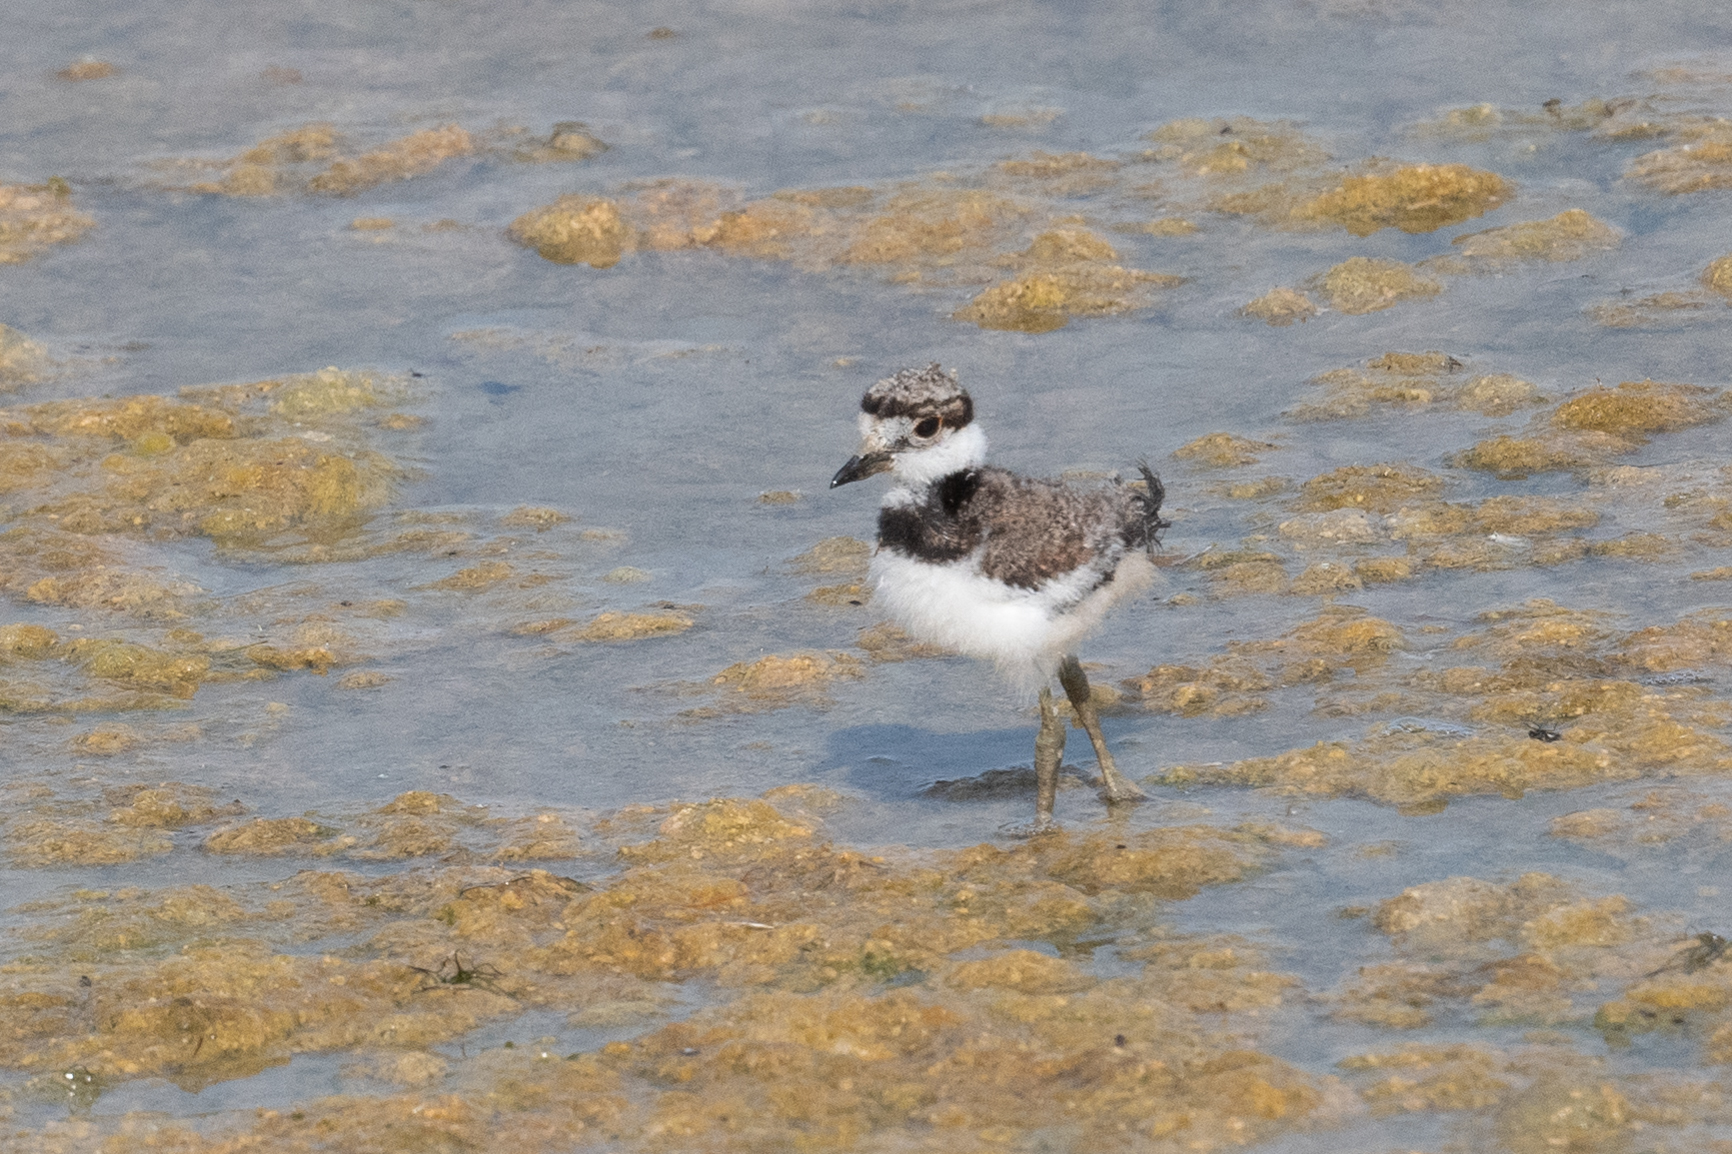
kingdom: Animalia
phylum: Chordata
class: Aves
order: Charadriiformes
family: Charadriidae
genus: Charadrius
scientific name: Charadrius vociferus
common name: Killdeer
